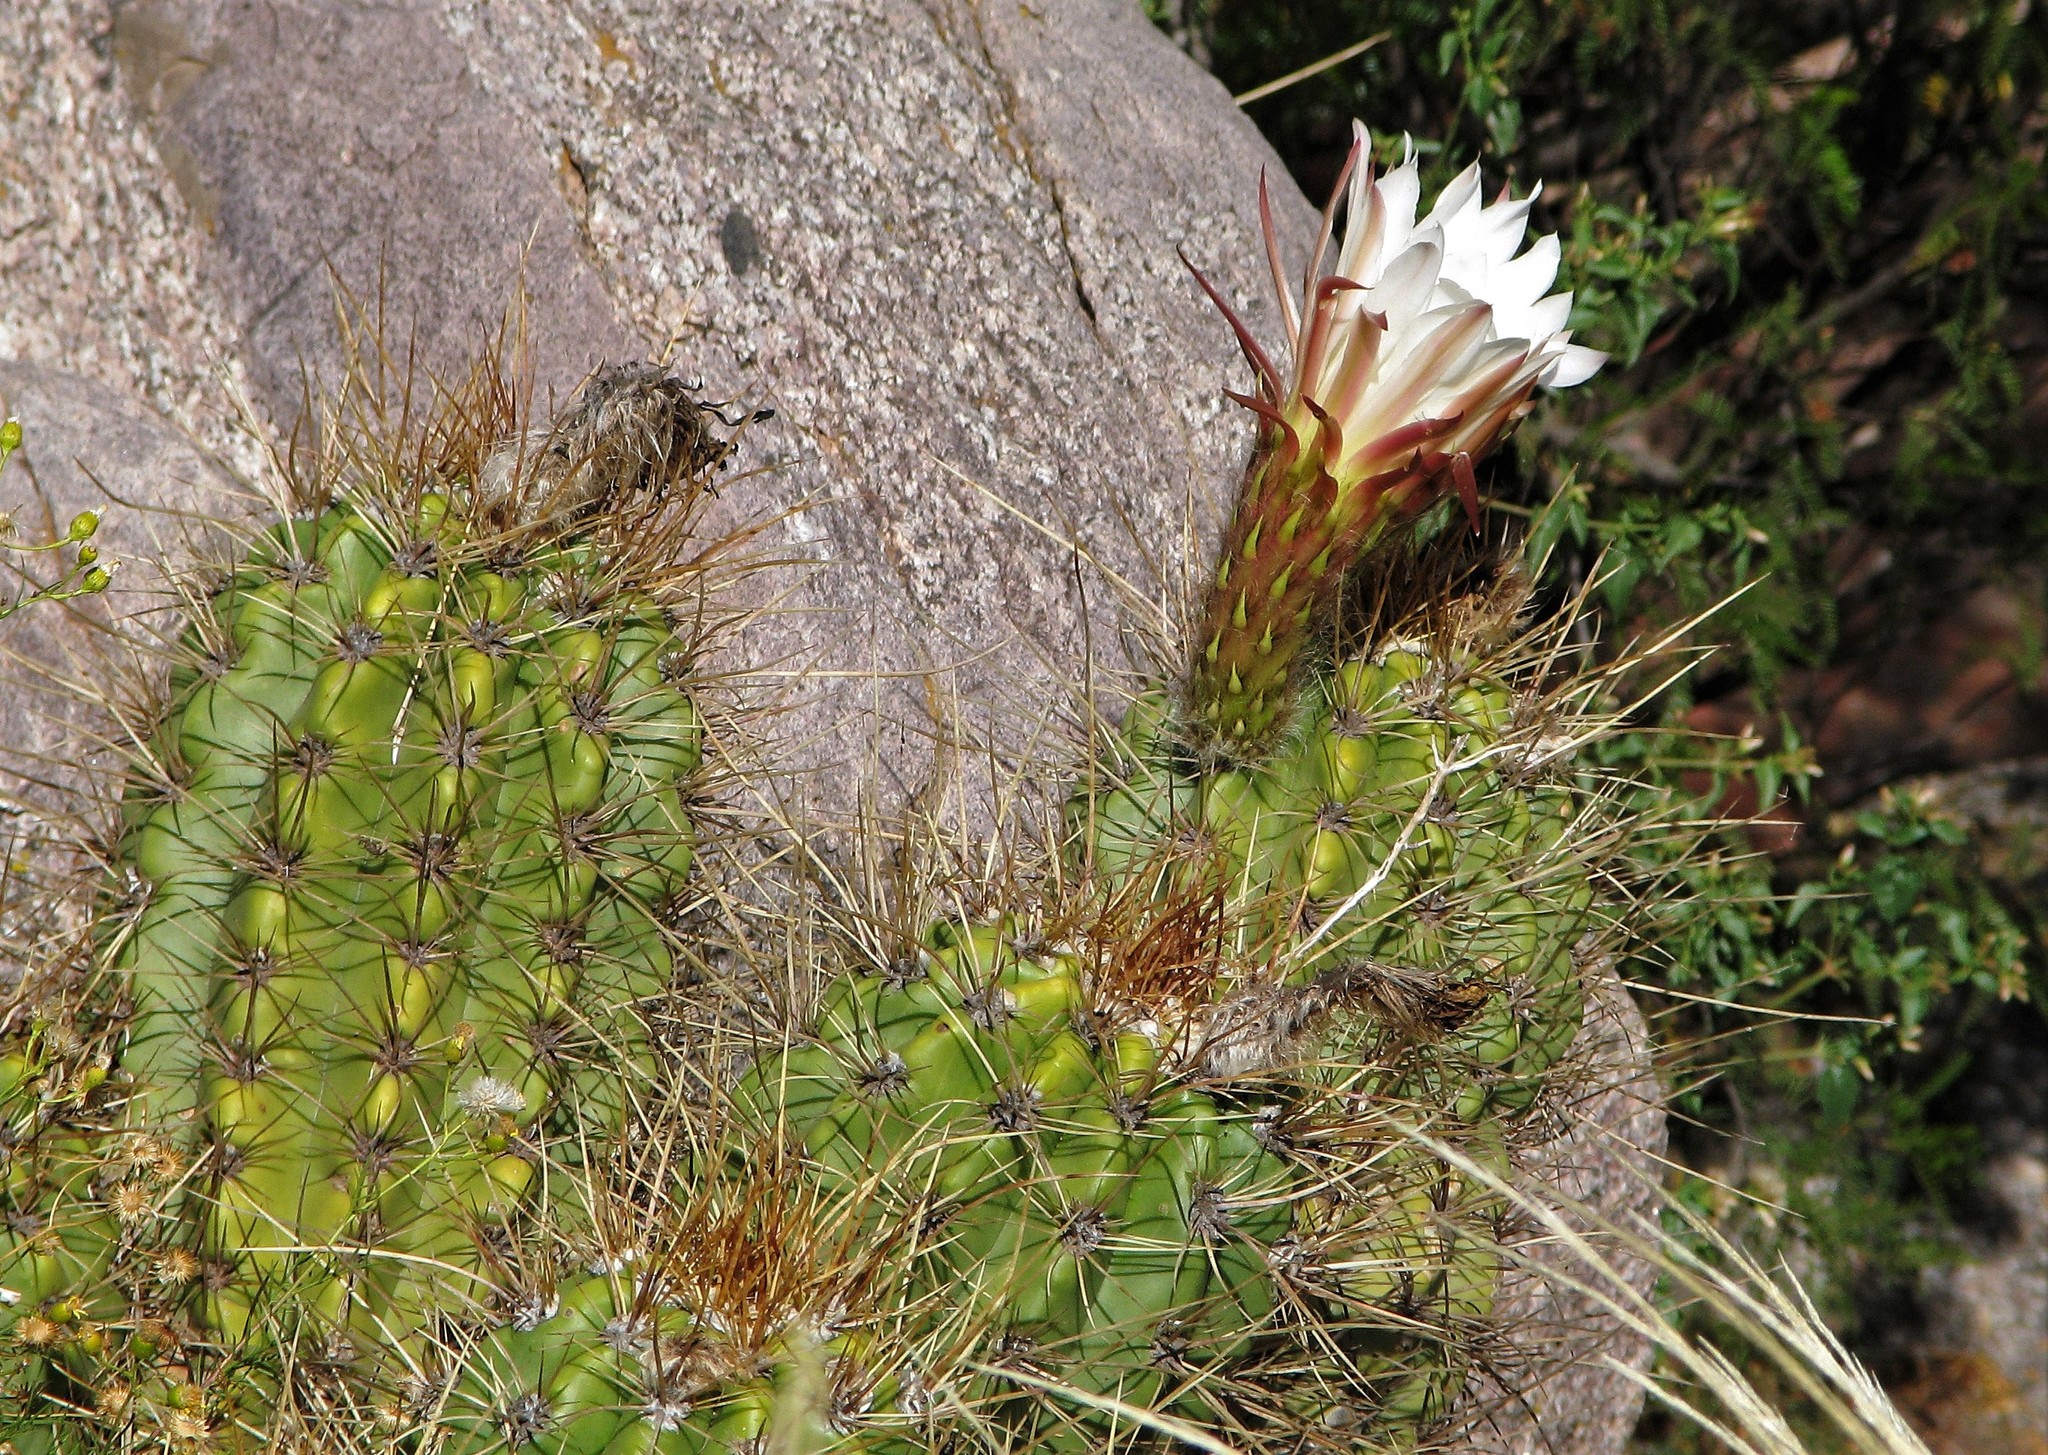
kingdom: Plantae
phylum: Tracheophyta
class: Magnoliopsida
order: Caryophyllales
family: Cactaceae
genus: Soehrensia
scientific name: Soehrensia candicans
